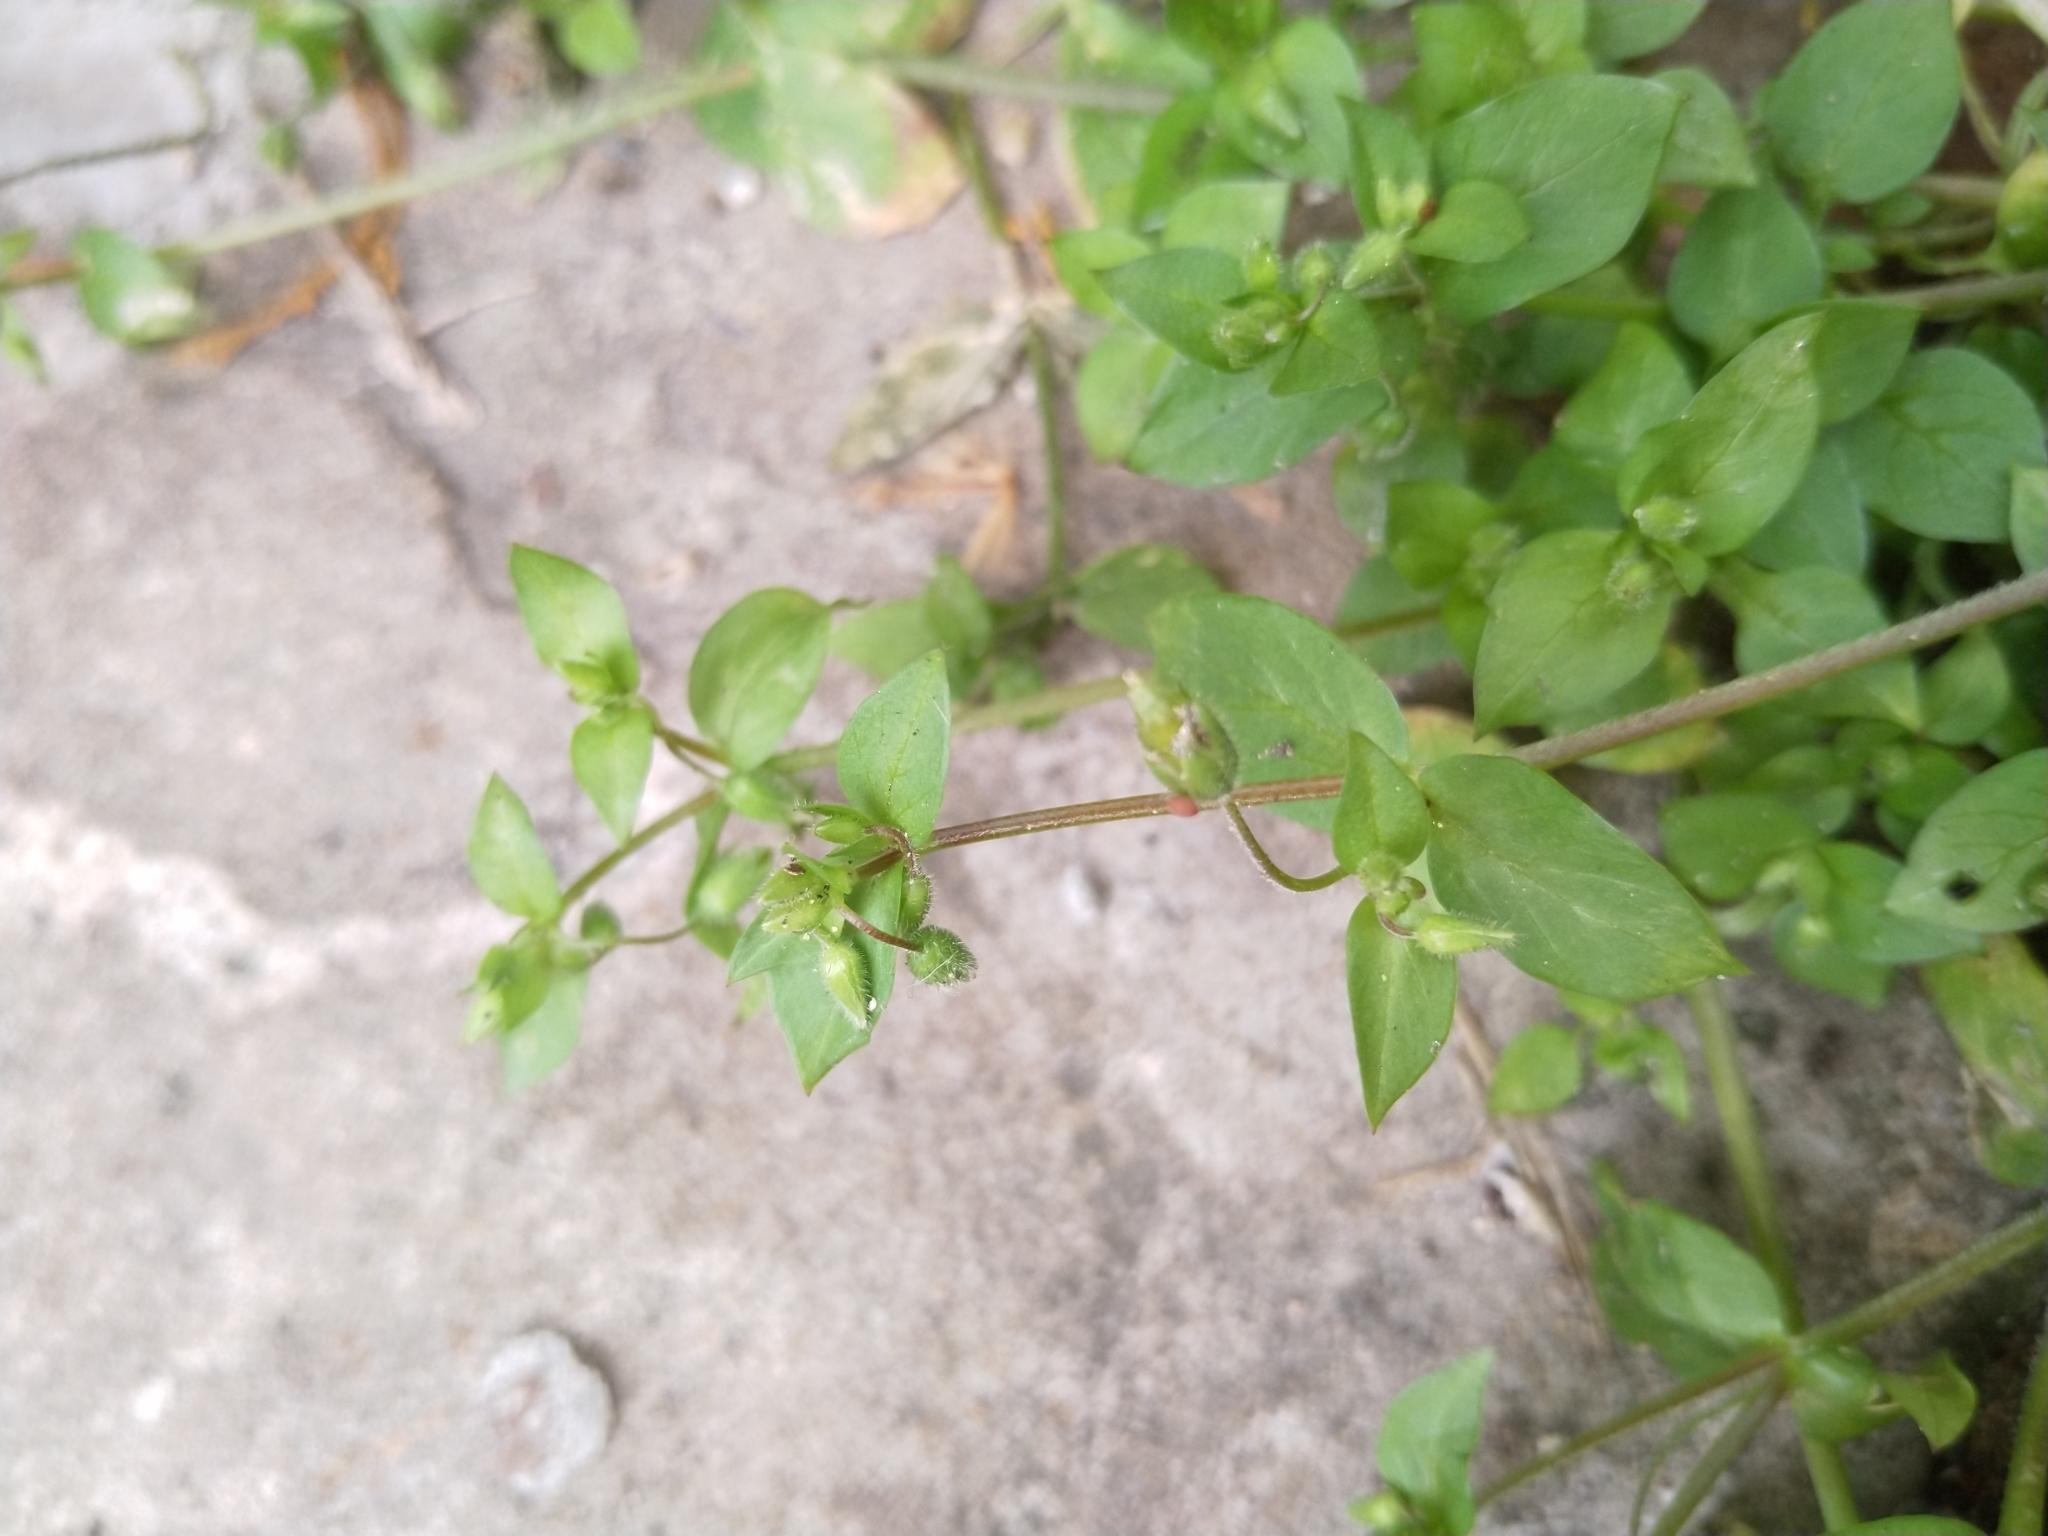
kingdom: Plantae
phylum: Tracheophyta
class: Magnoliopsida
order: Caryophyllales
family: Caryophyllaceae
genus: Stellaria
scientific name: Stellaria media
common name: Common chickweed
